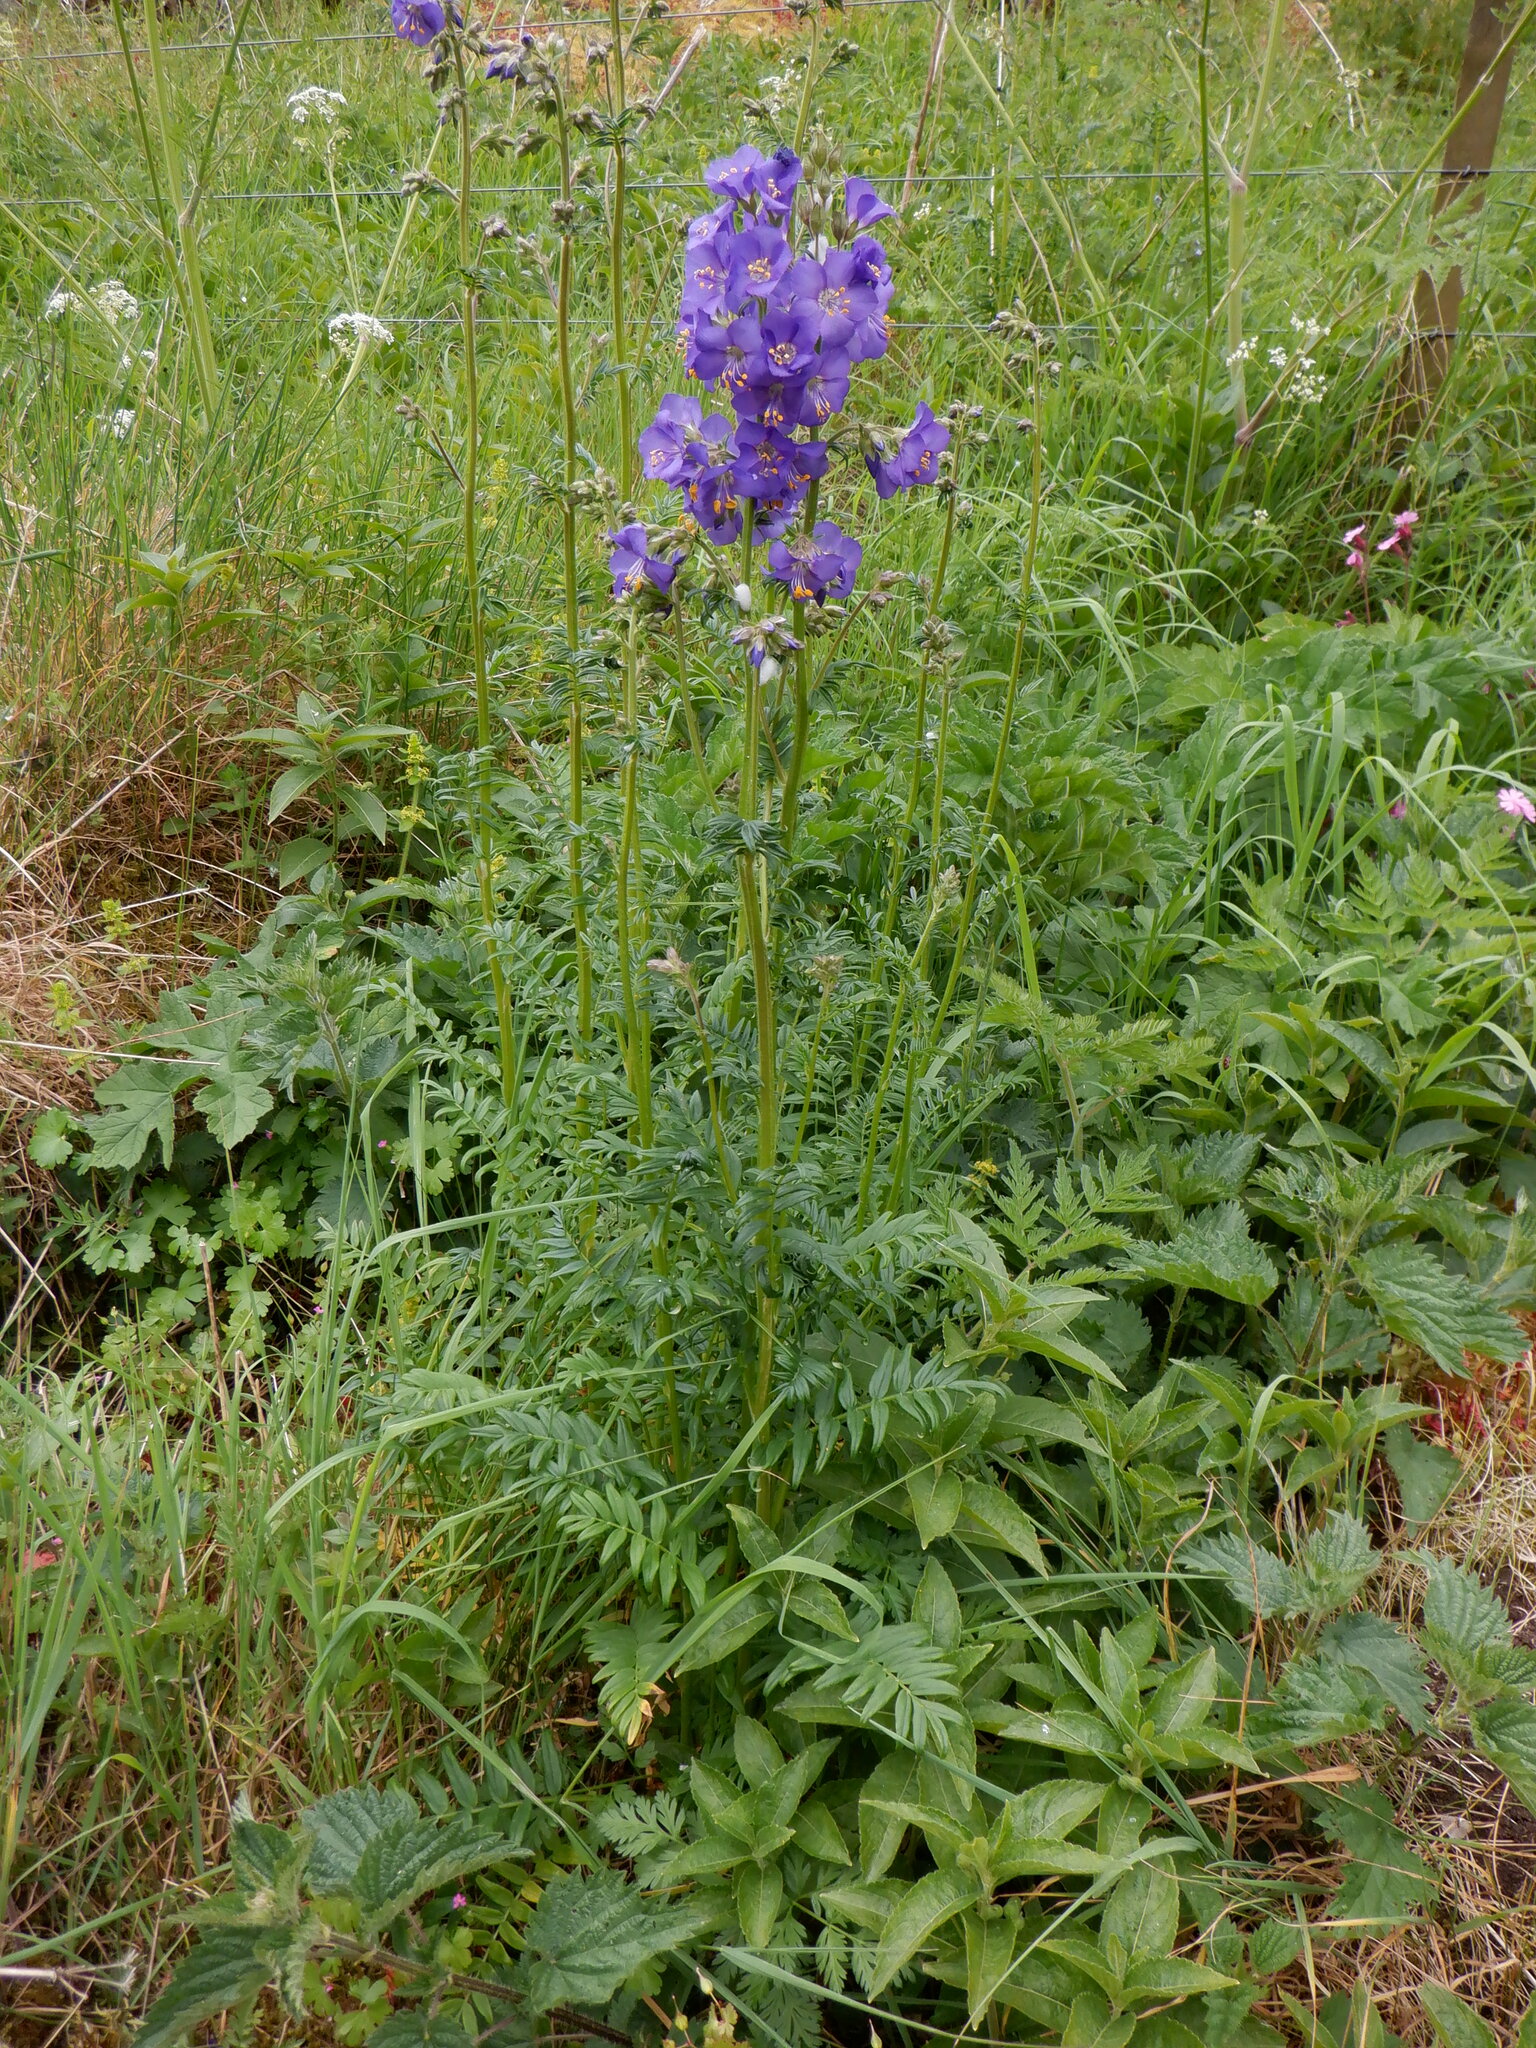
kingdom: Plantae
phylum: Tracheophyta
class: Magnoliopsida
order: Ericales
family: Polemoniaceae
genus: Polemonium
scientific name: Polemonium caeruleum
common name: Jacob's-ladder
